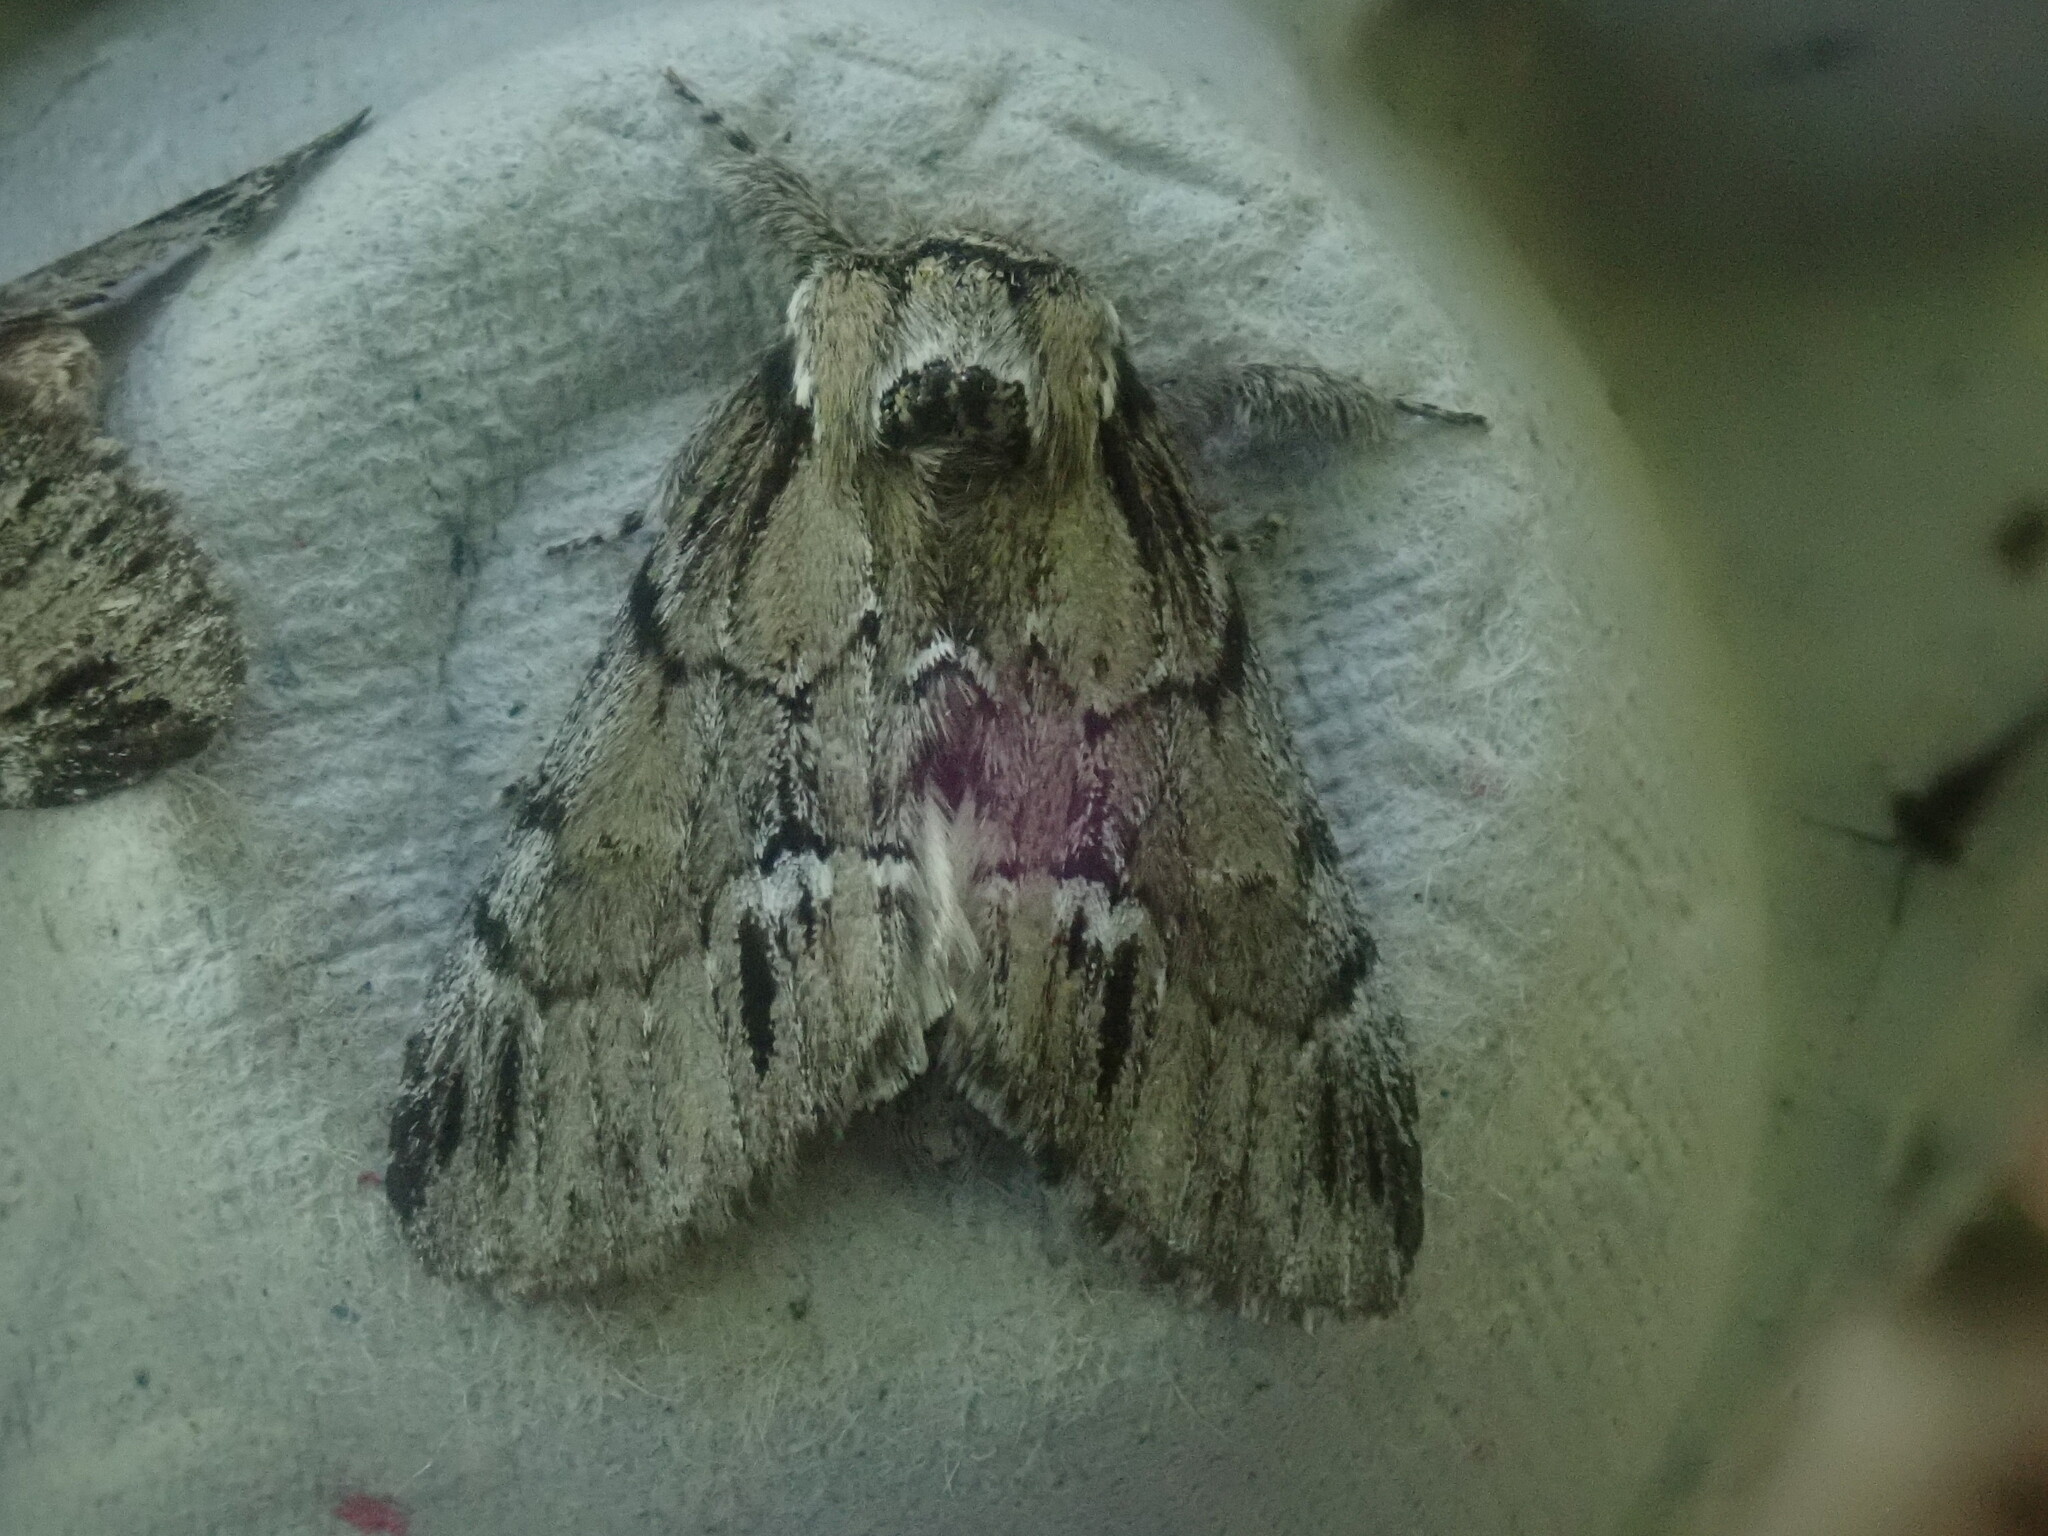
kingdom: Animalia
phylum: Arthropoda
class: Insecta
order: Lepidoptera
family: Notodontidae
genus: Paraeschra
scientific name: Paraeschra georgica
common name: Georgian prominent
